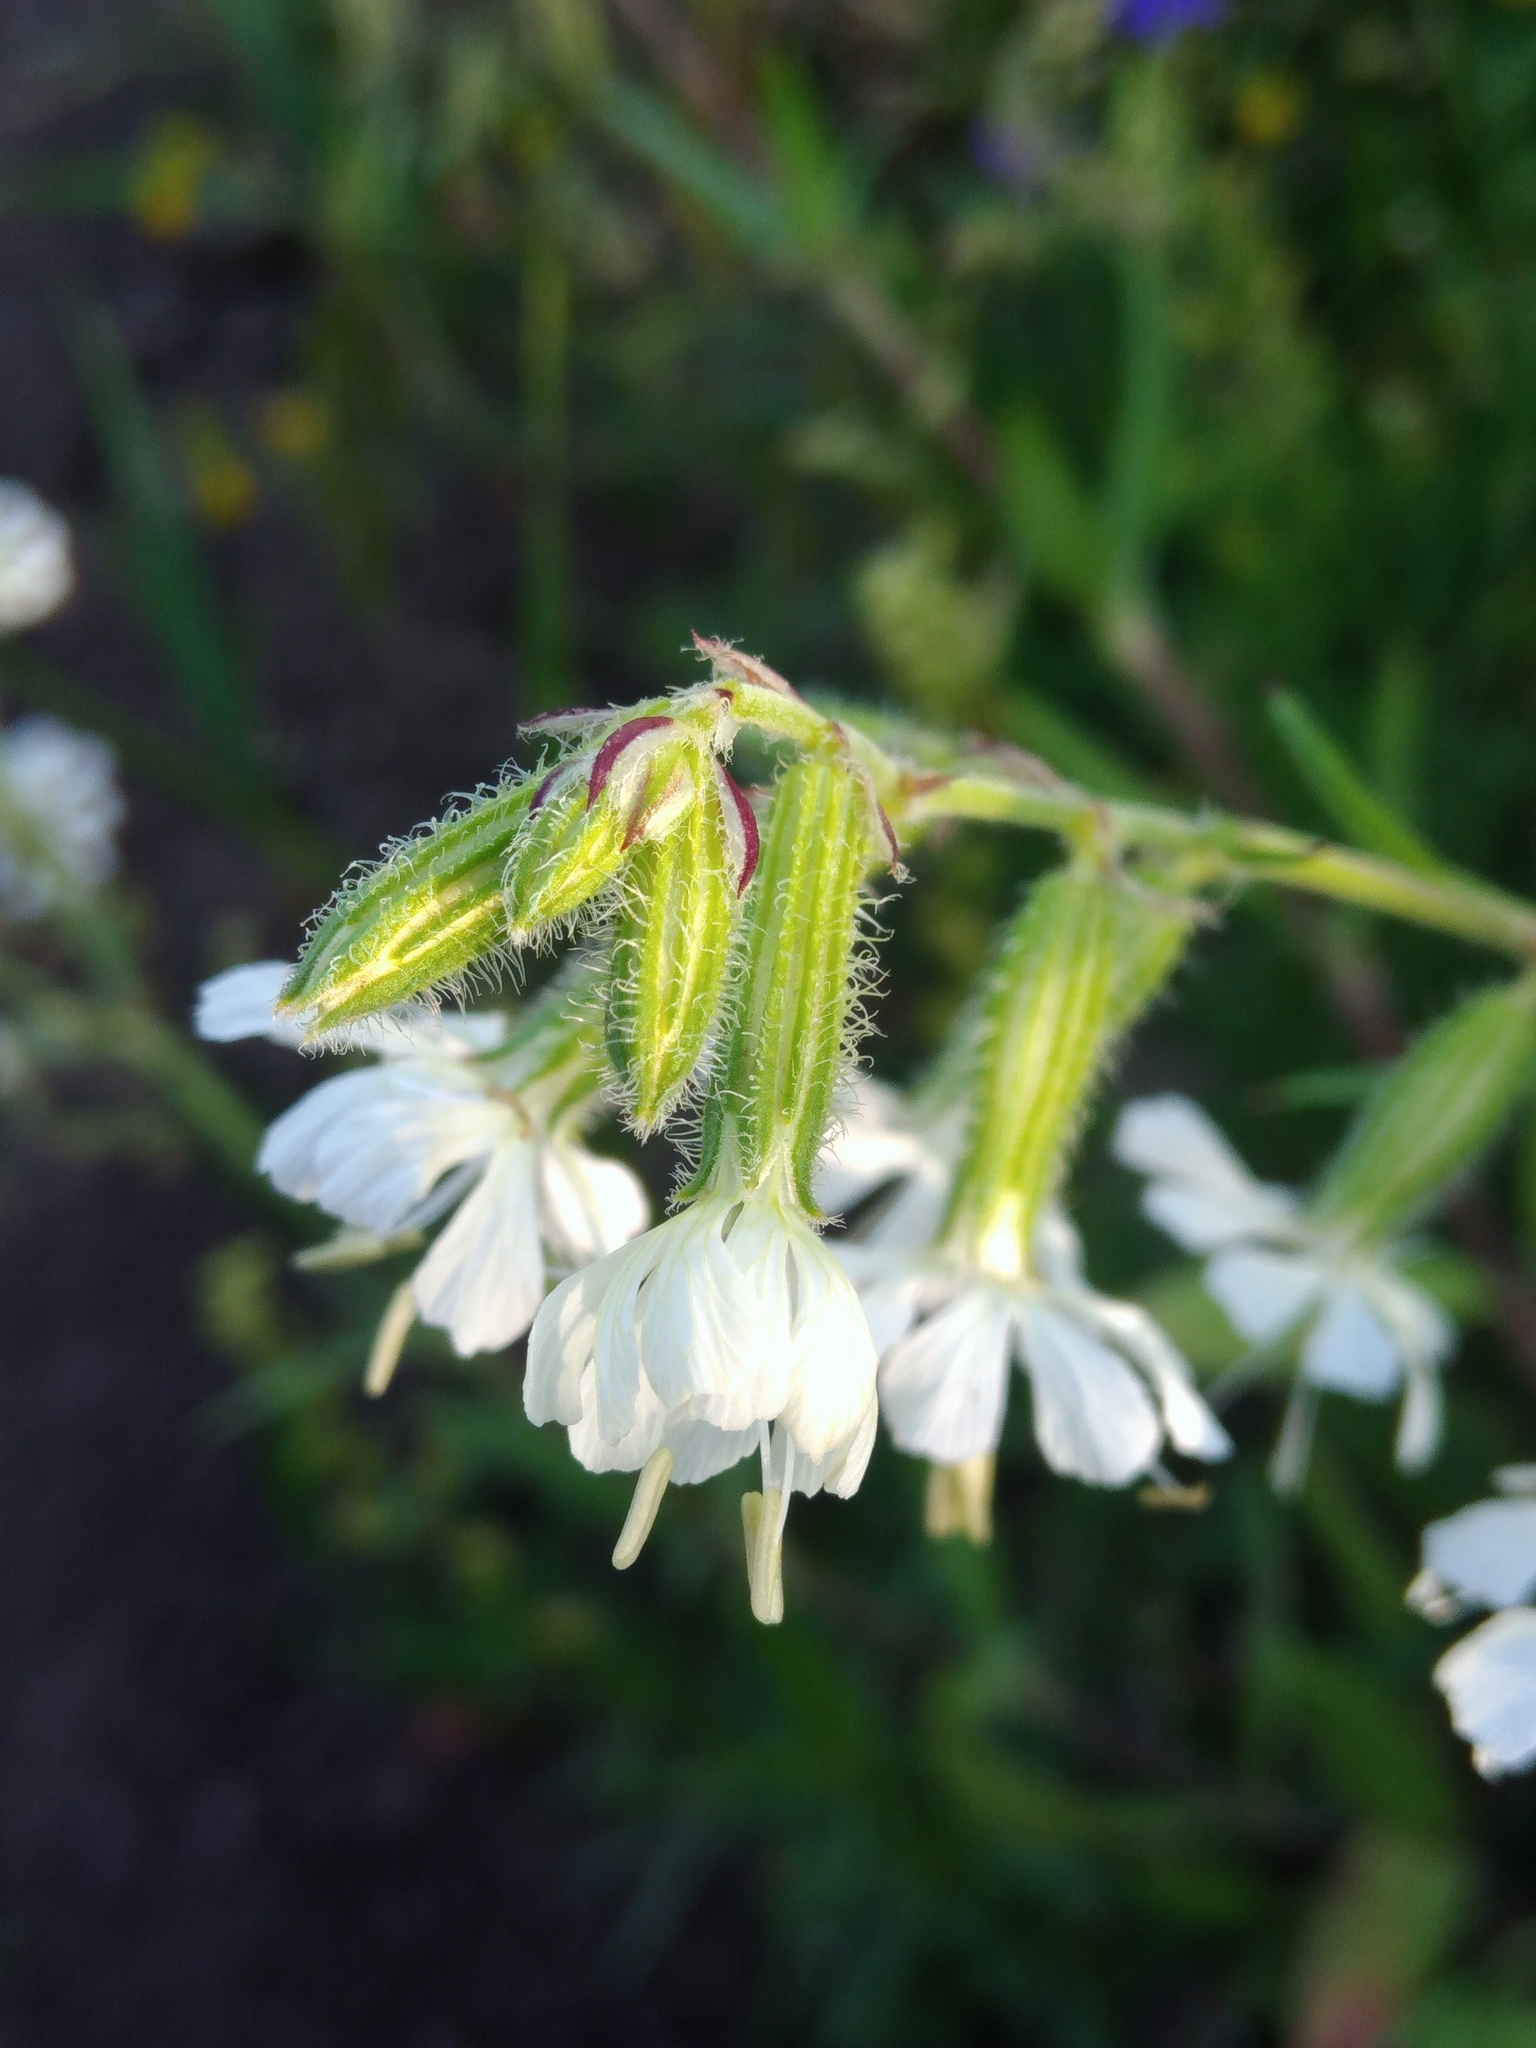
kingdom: Plantae
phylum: Tracheophyta
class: Magnoliopsida
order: Caryophyllales
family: Caryophyllaceae
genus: Silene
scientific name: Silene dichotoma
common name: Forked catchfly
